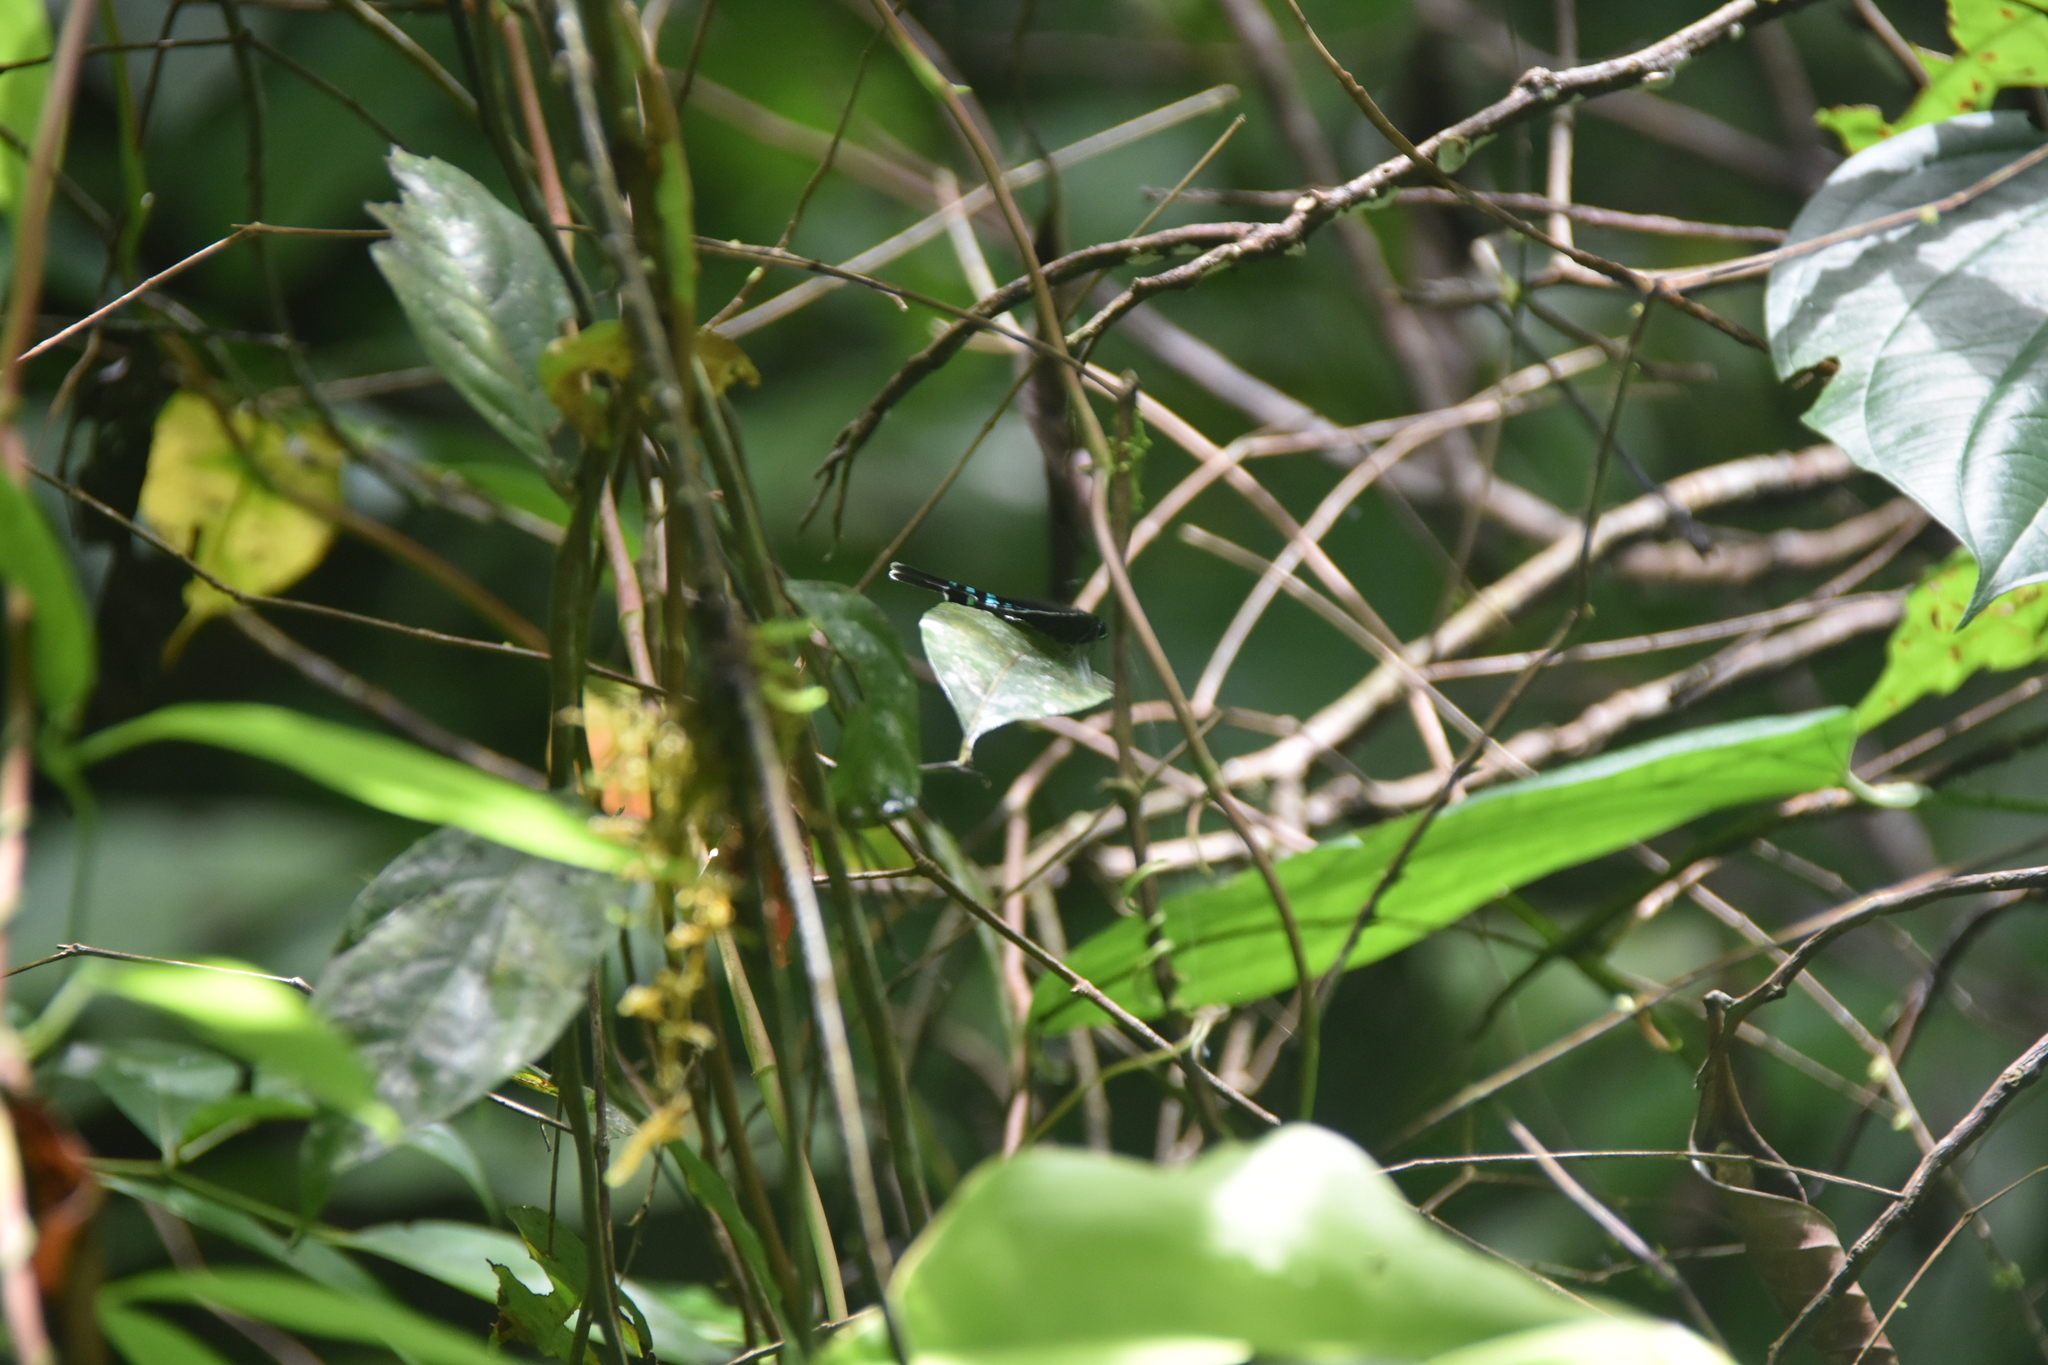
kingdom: Animalia
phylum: Arthropoda
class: Insecta
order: Lepidoptera
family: Uraniidae
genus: Urania
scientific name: Urania fulgens
